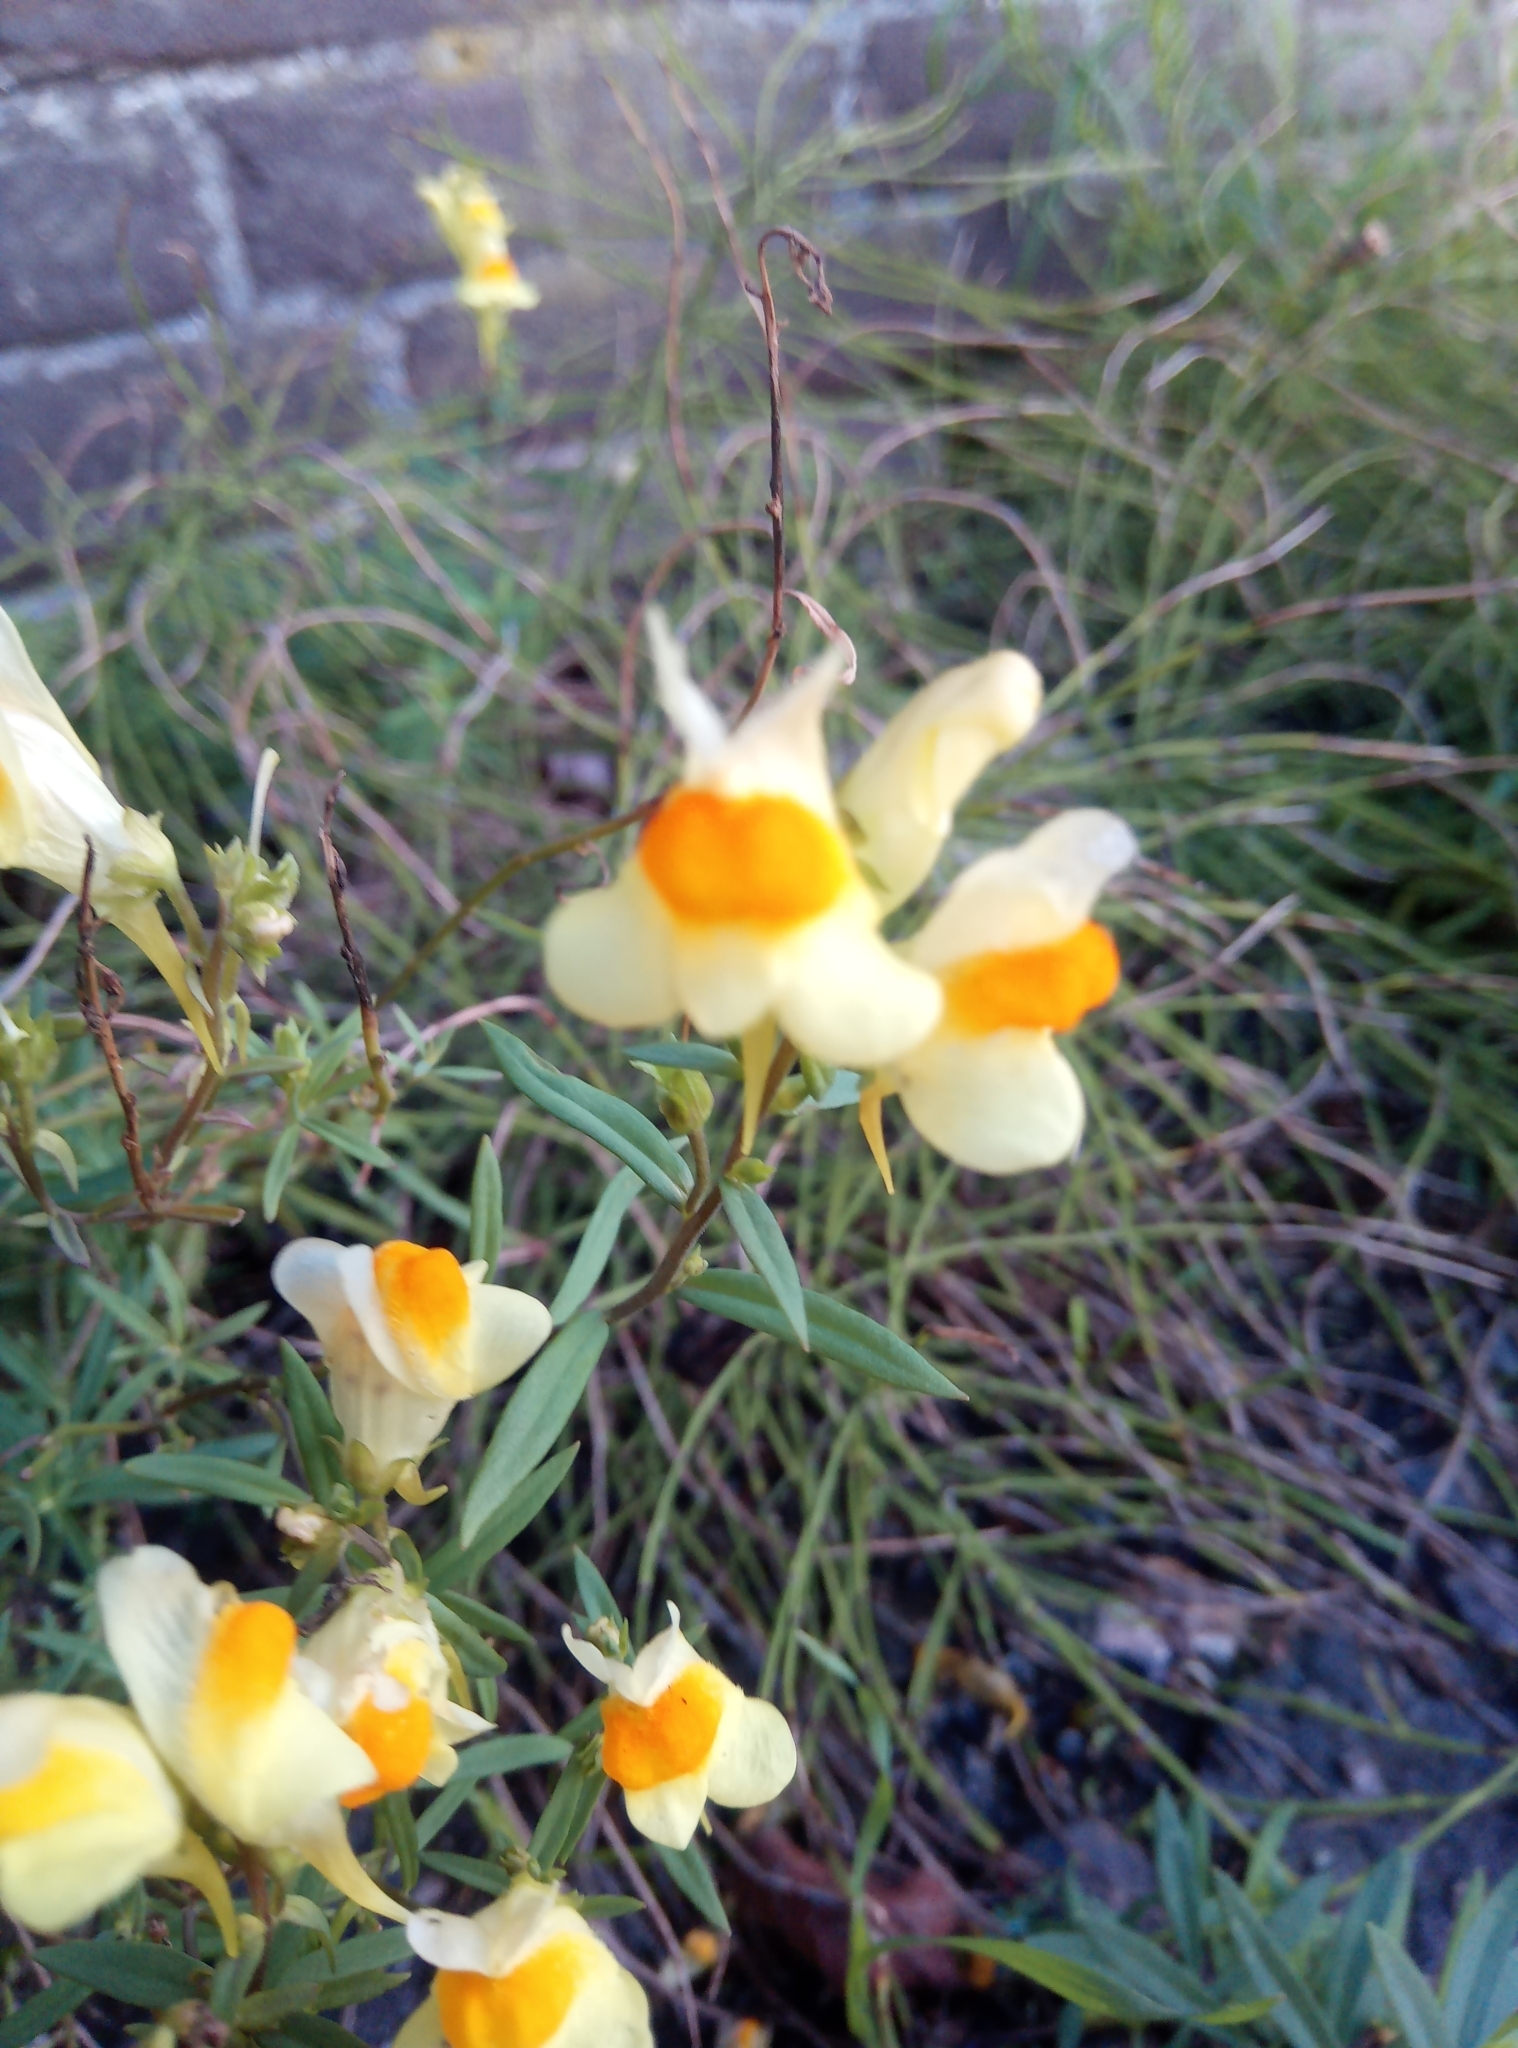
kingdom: Plantae
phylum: Tracheophyta
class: Magnoliopsida
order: Lamiales
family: Plantaginaceae
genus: Linaria
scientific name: Linaria vulgaris
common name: Butter and eggs
